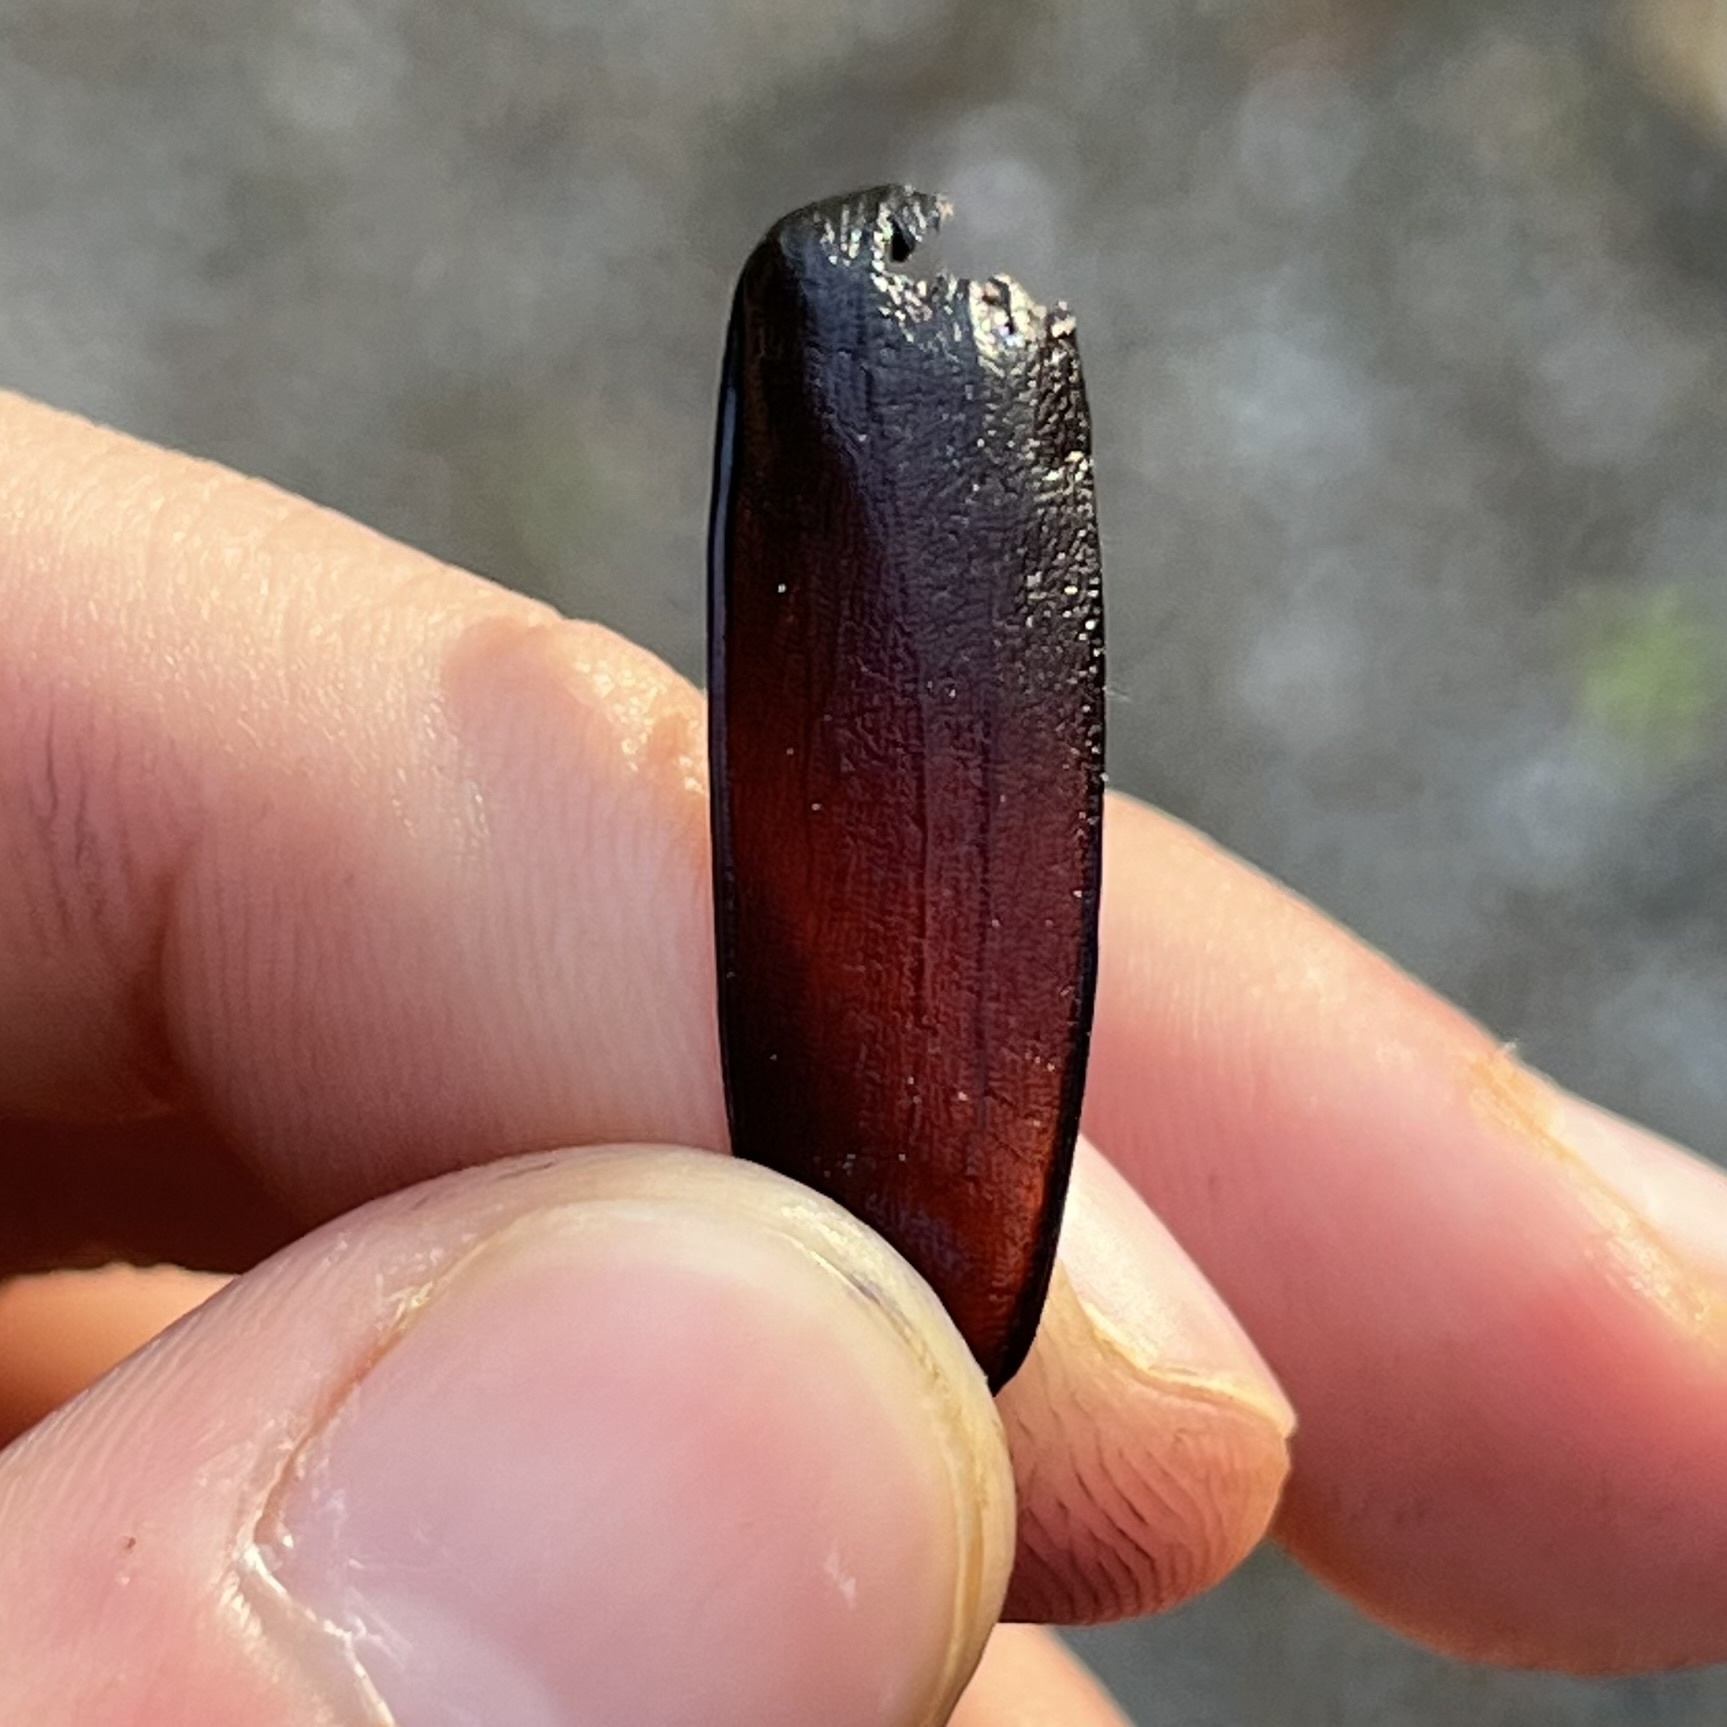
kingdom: Animalia
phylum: Arthropoda
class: Insecta
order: Coleoptera
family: Cerambycidae
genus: Prionus
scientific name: Prionus coriarius
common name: Tanner beetle
